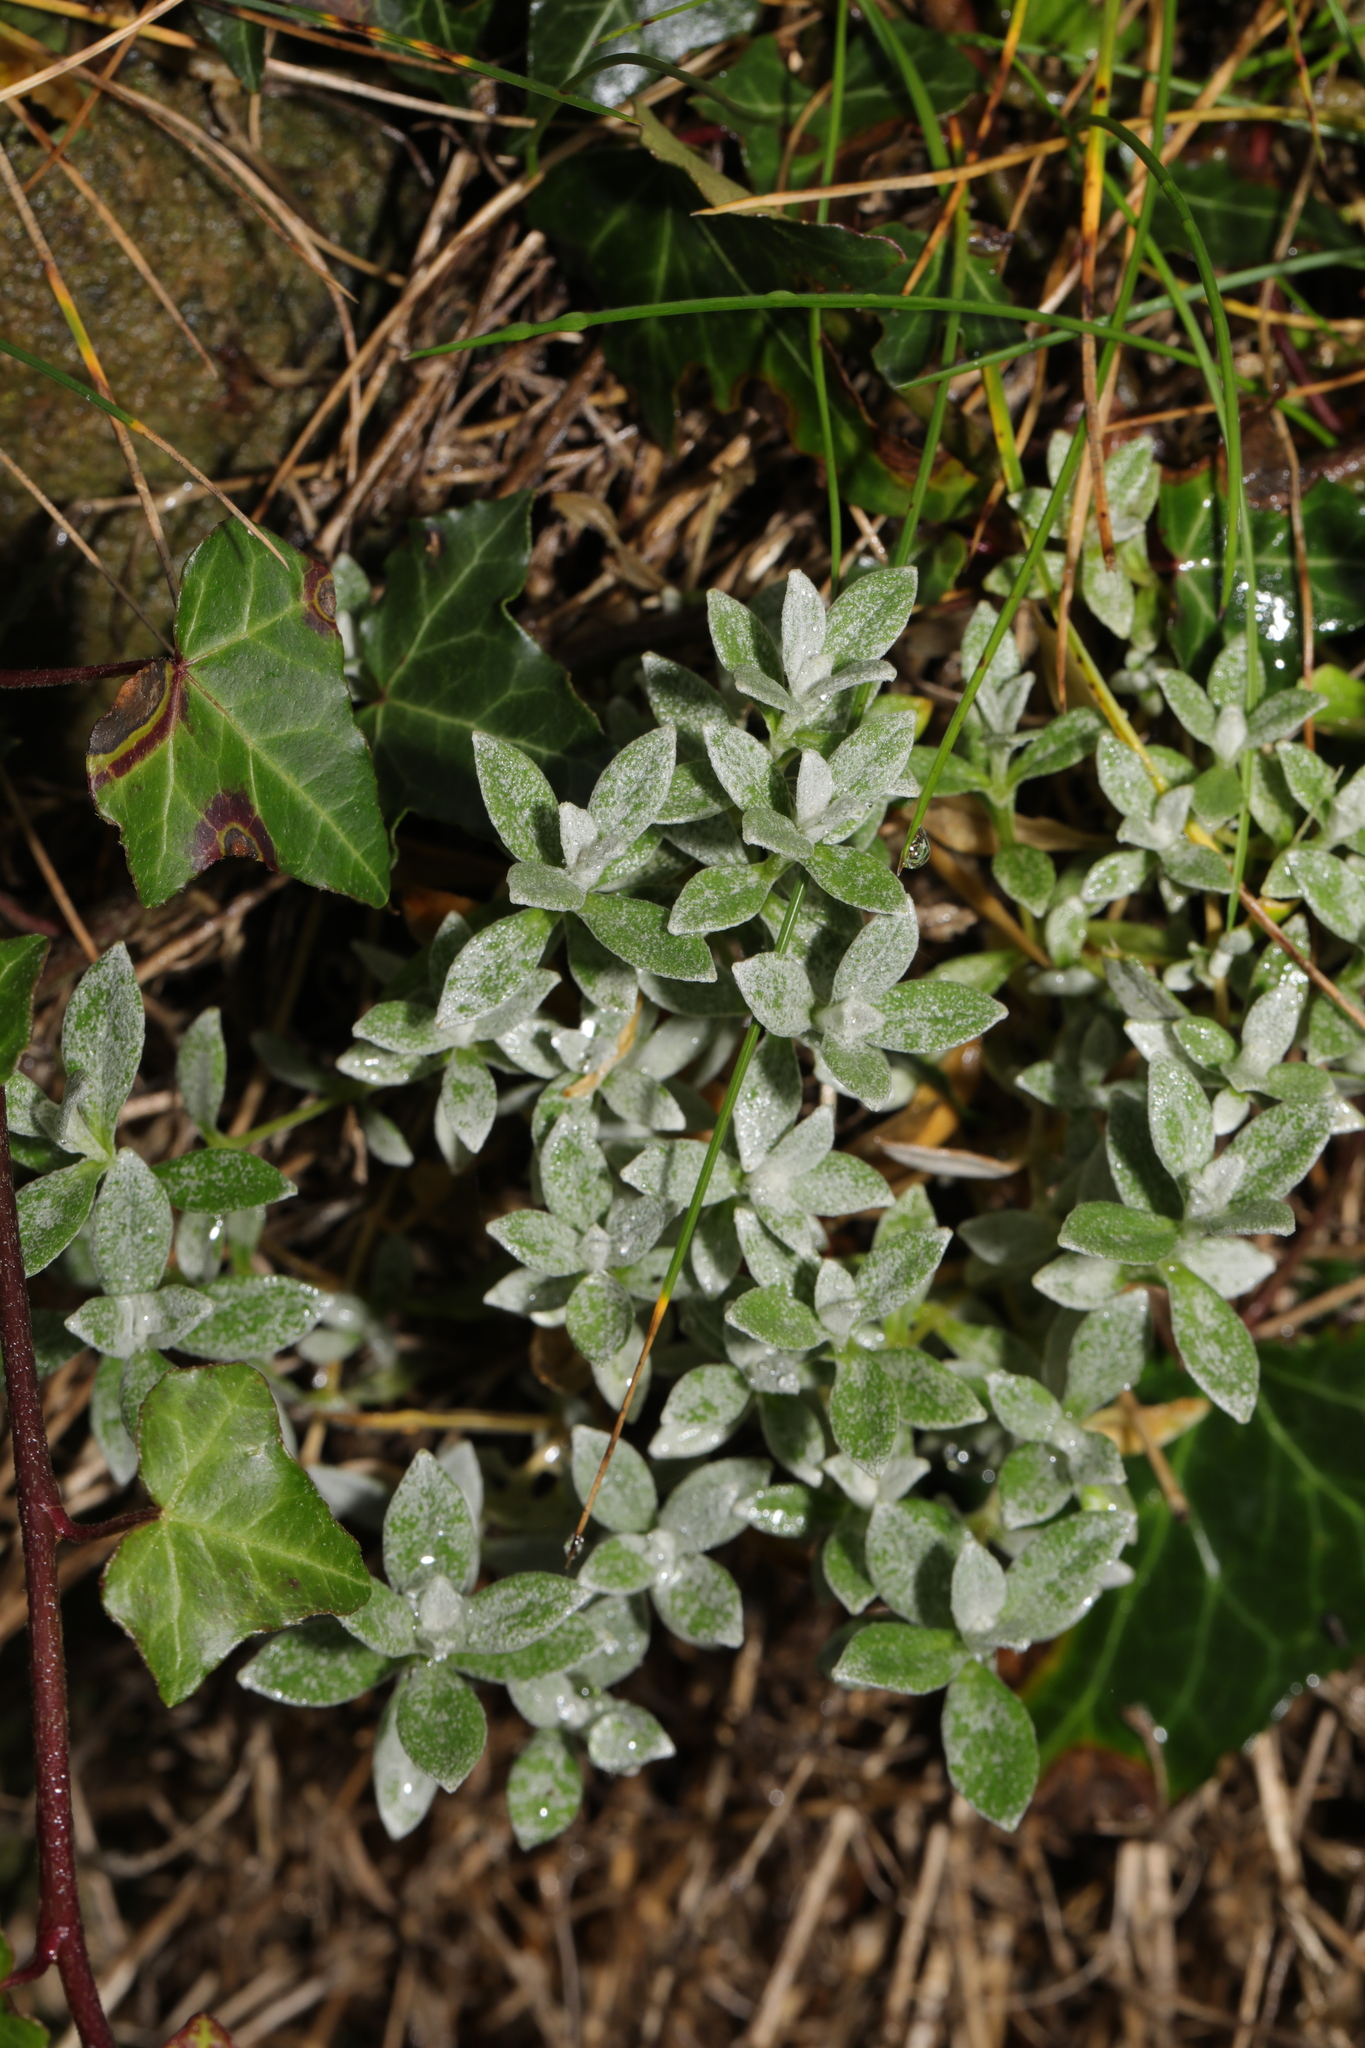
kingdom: Plantae
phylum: Tracheophyta
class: Magnoliopsida
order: Caryophyllales
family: Caryophyllaceae
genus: Cerastium
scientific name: Cerastium tomentosum
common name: Snow-in-summer
